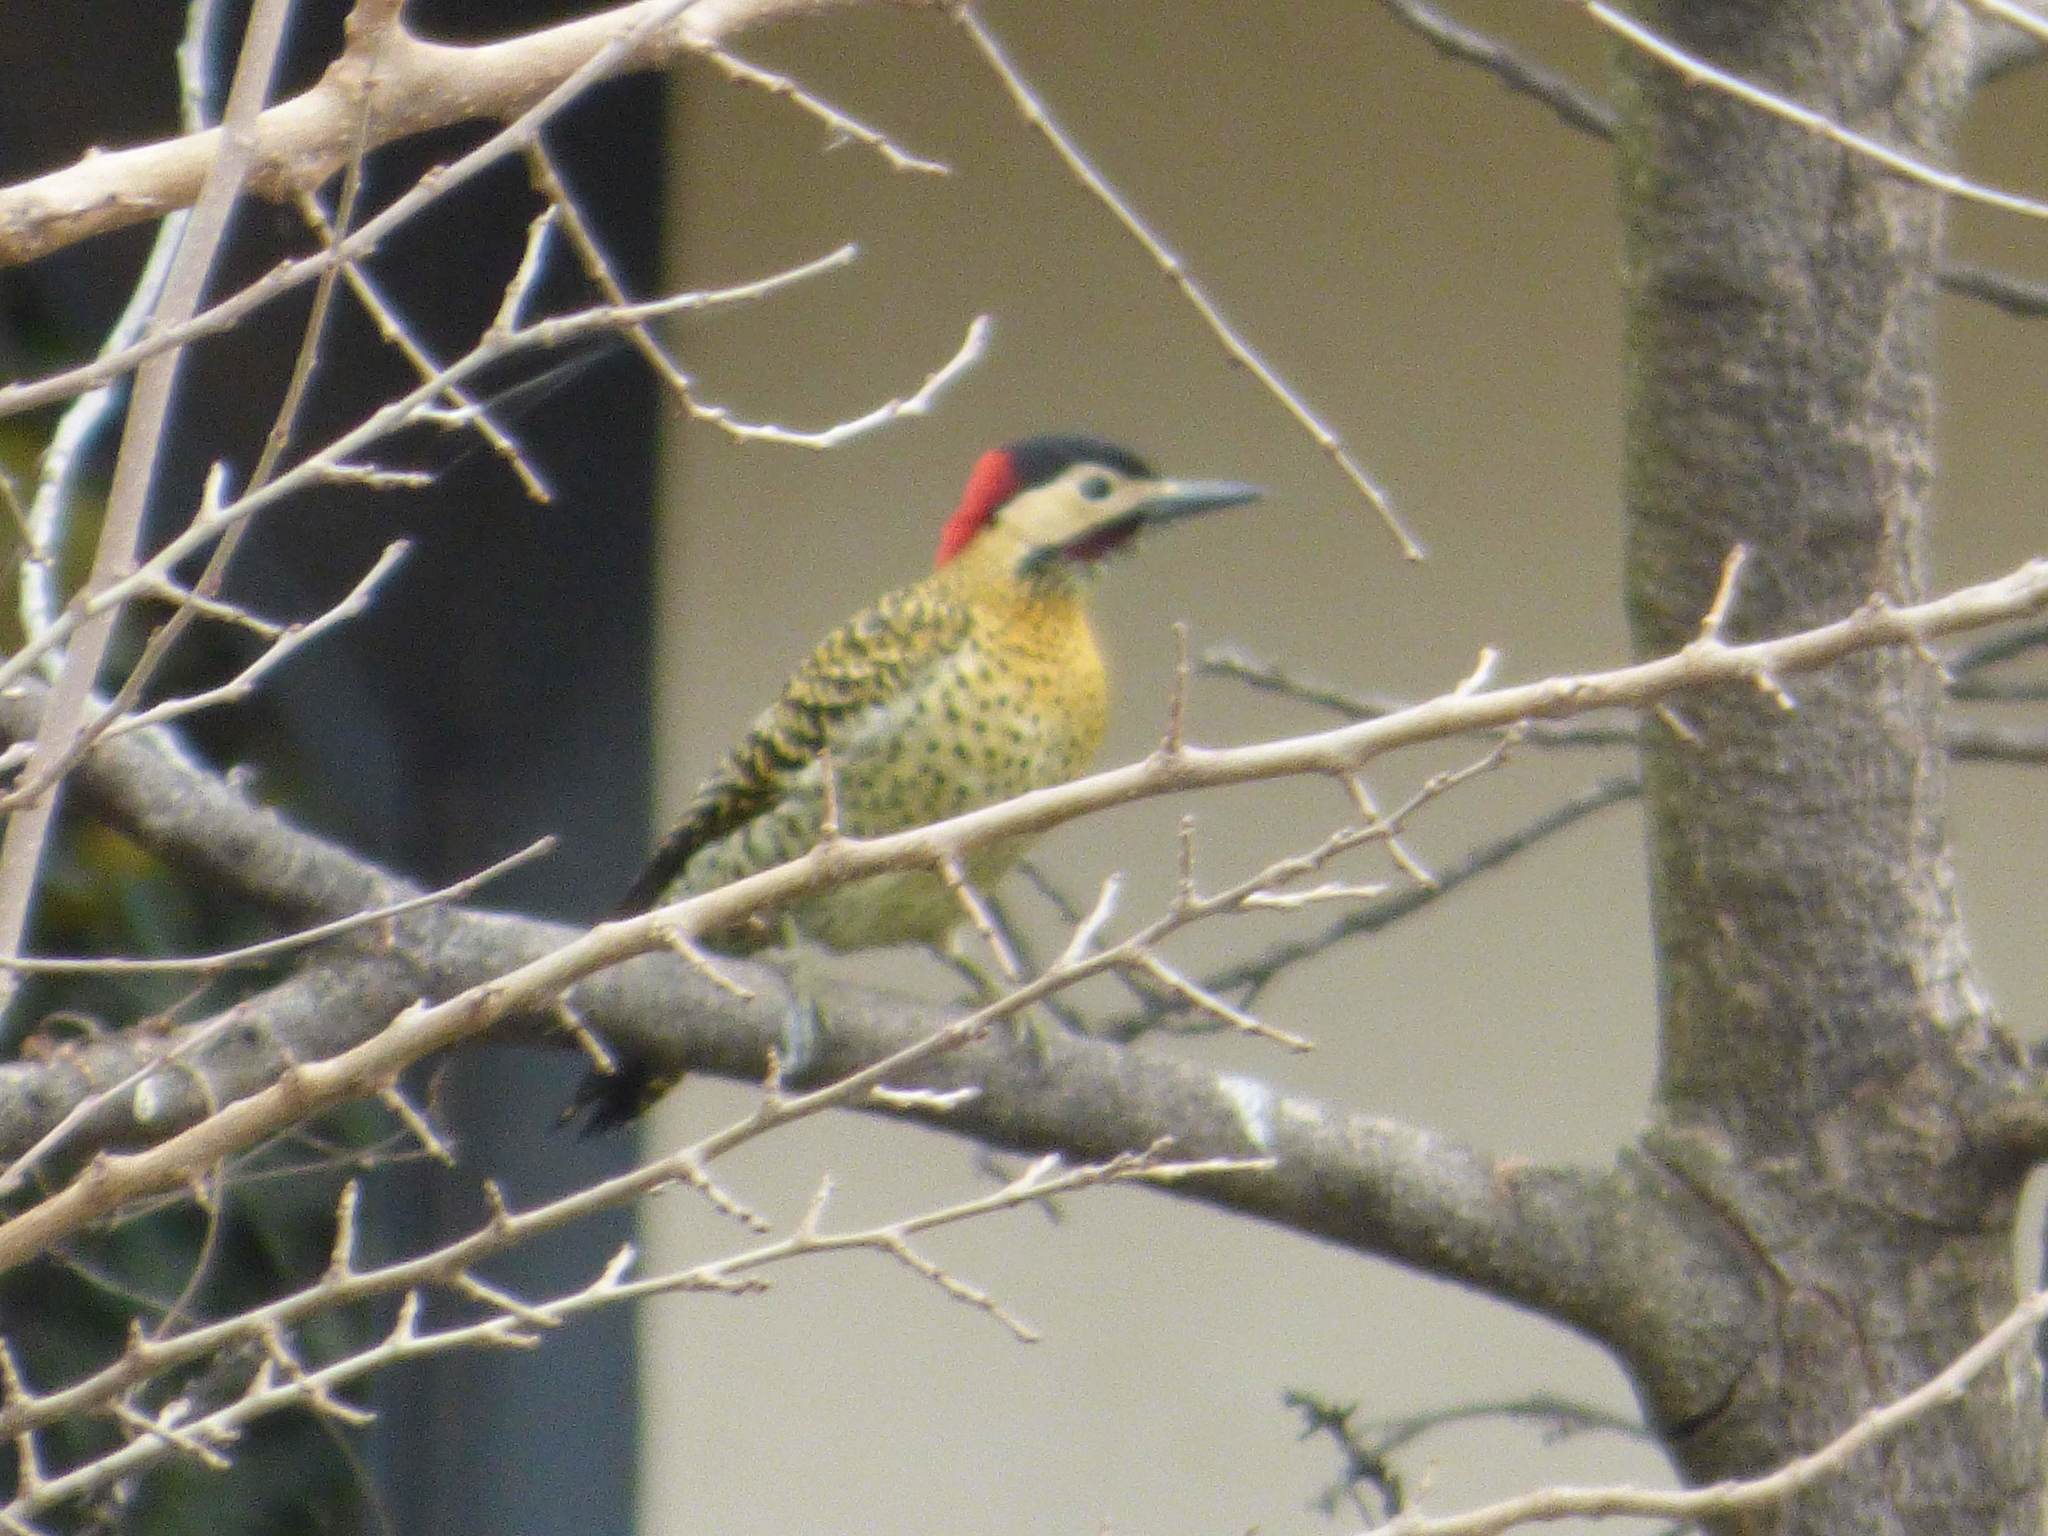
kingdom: Animalia
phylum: Chordata
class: Aves
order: Piciformes
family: Picidae
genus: Colaptes
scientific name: Colaptes melanochloros
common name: Green-barred woodpecker
